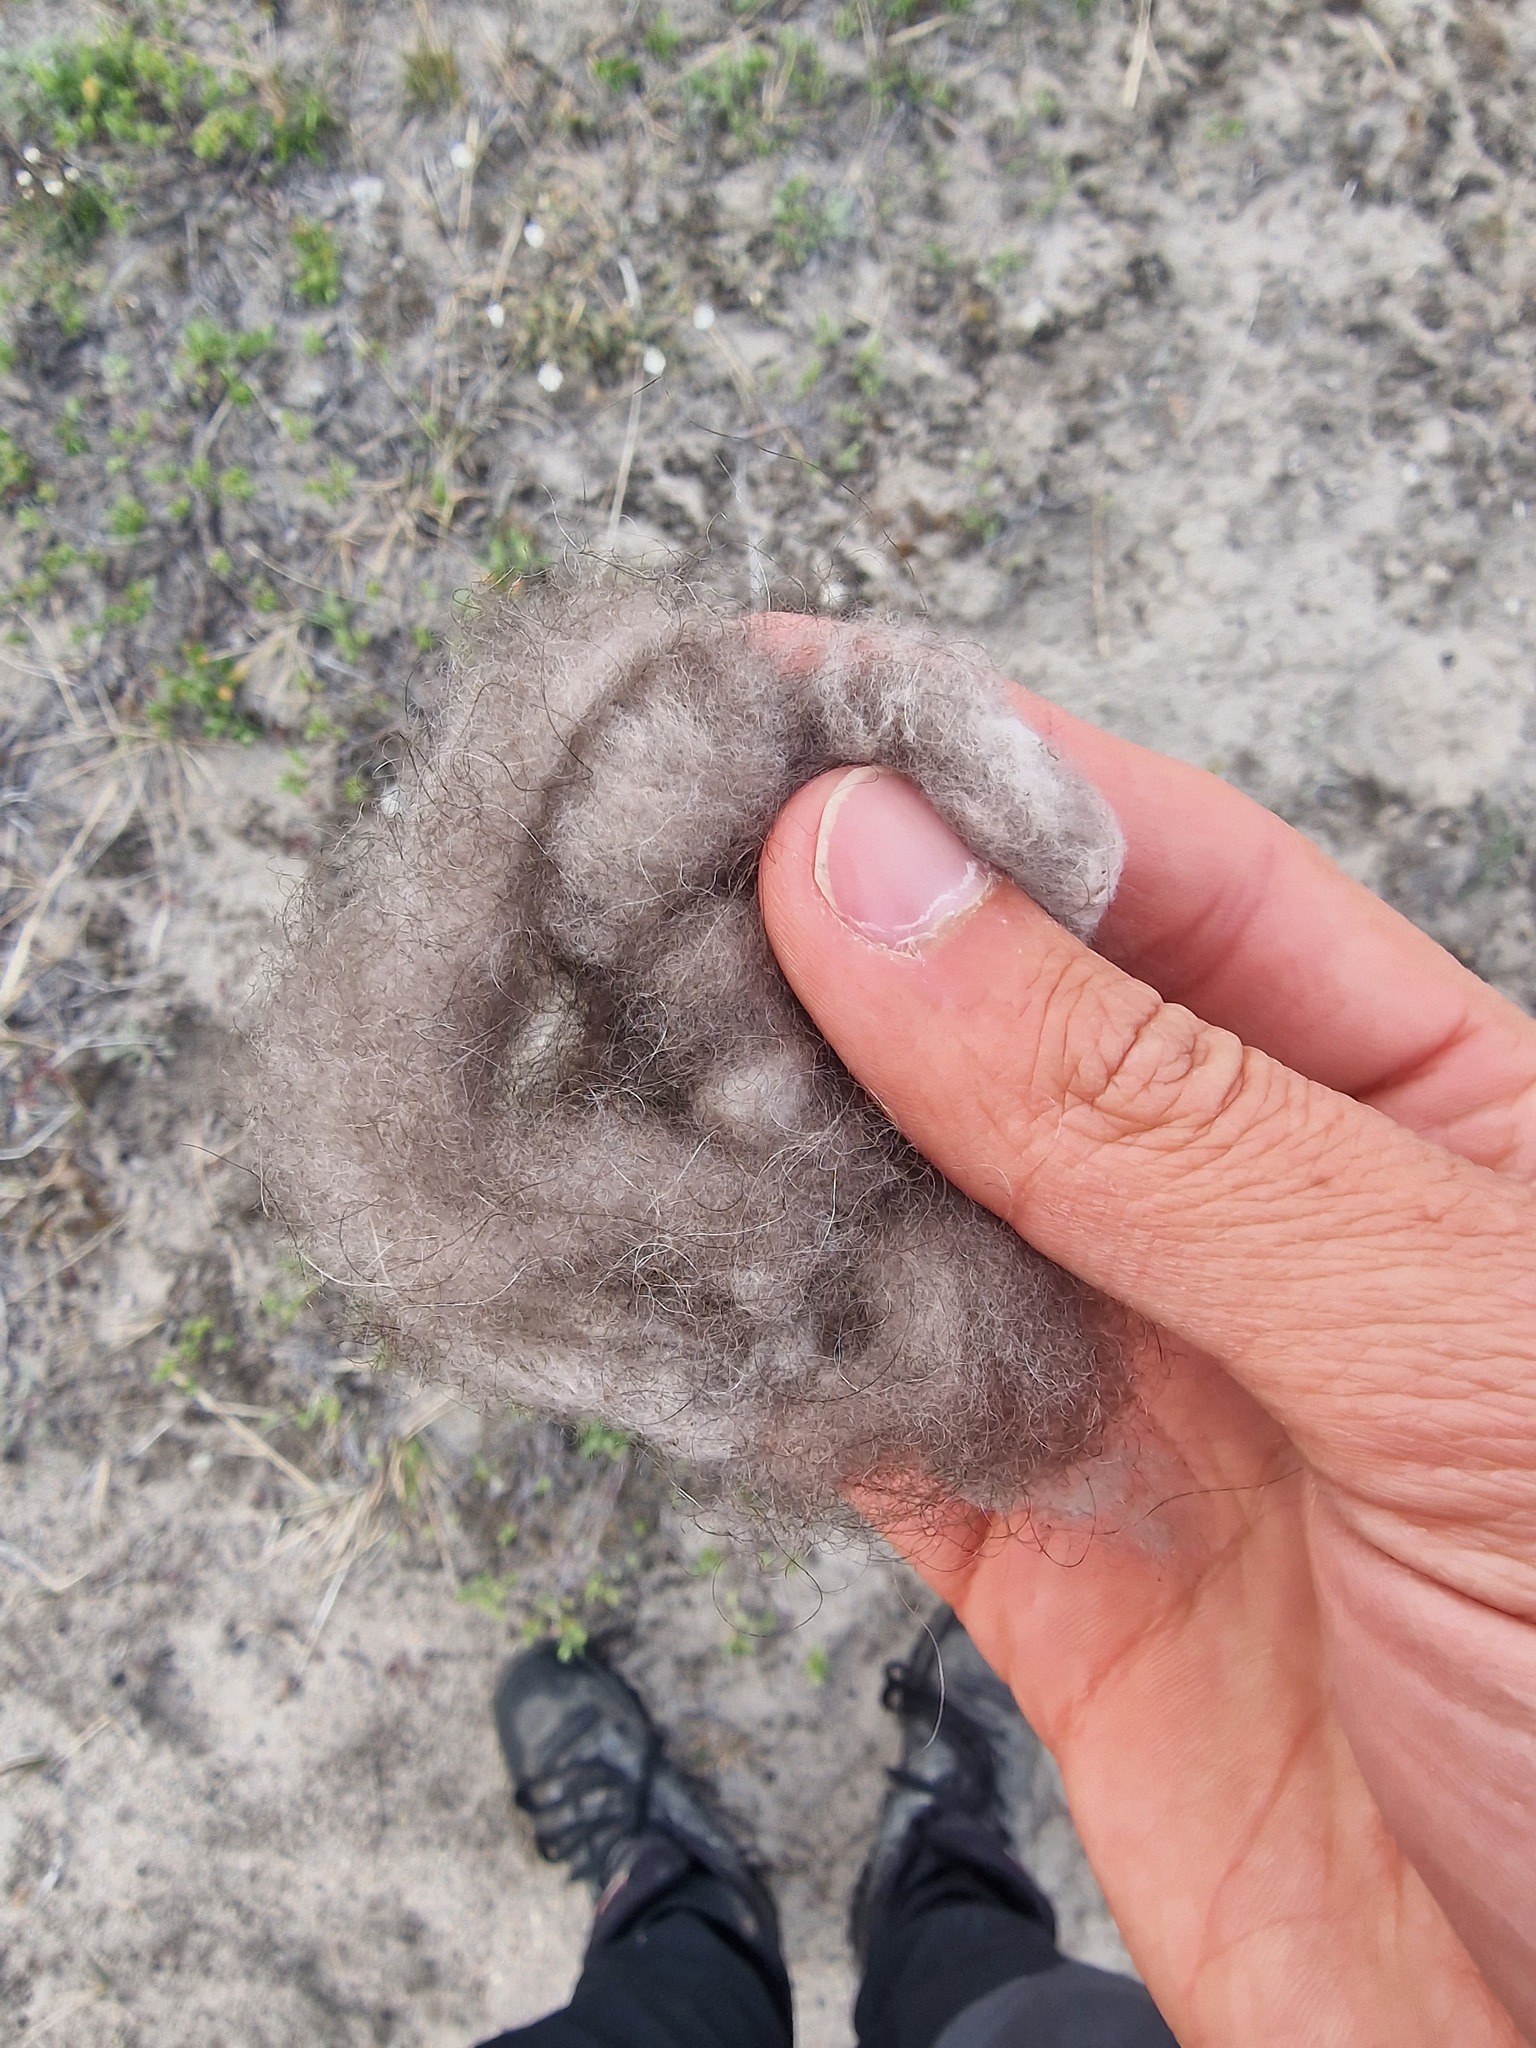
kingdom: Animalia
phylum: Chordata
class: Mammalia
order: Artiodactyla
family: Bovidae
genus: Ovibos
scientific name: Ovibos moschatus
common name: Muskox
